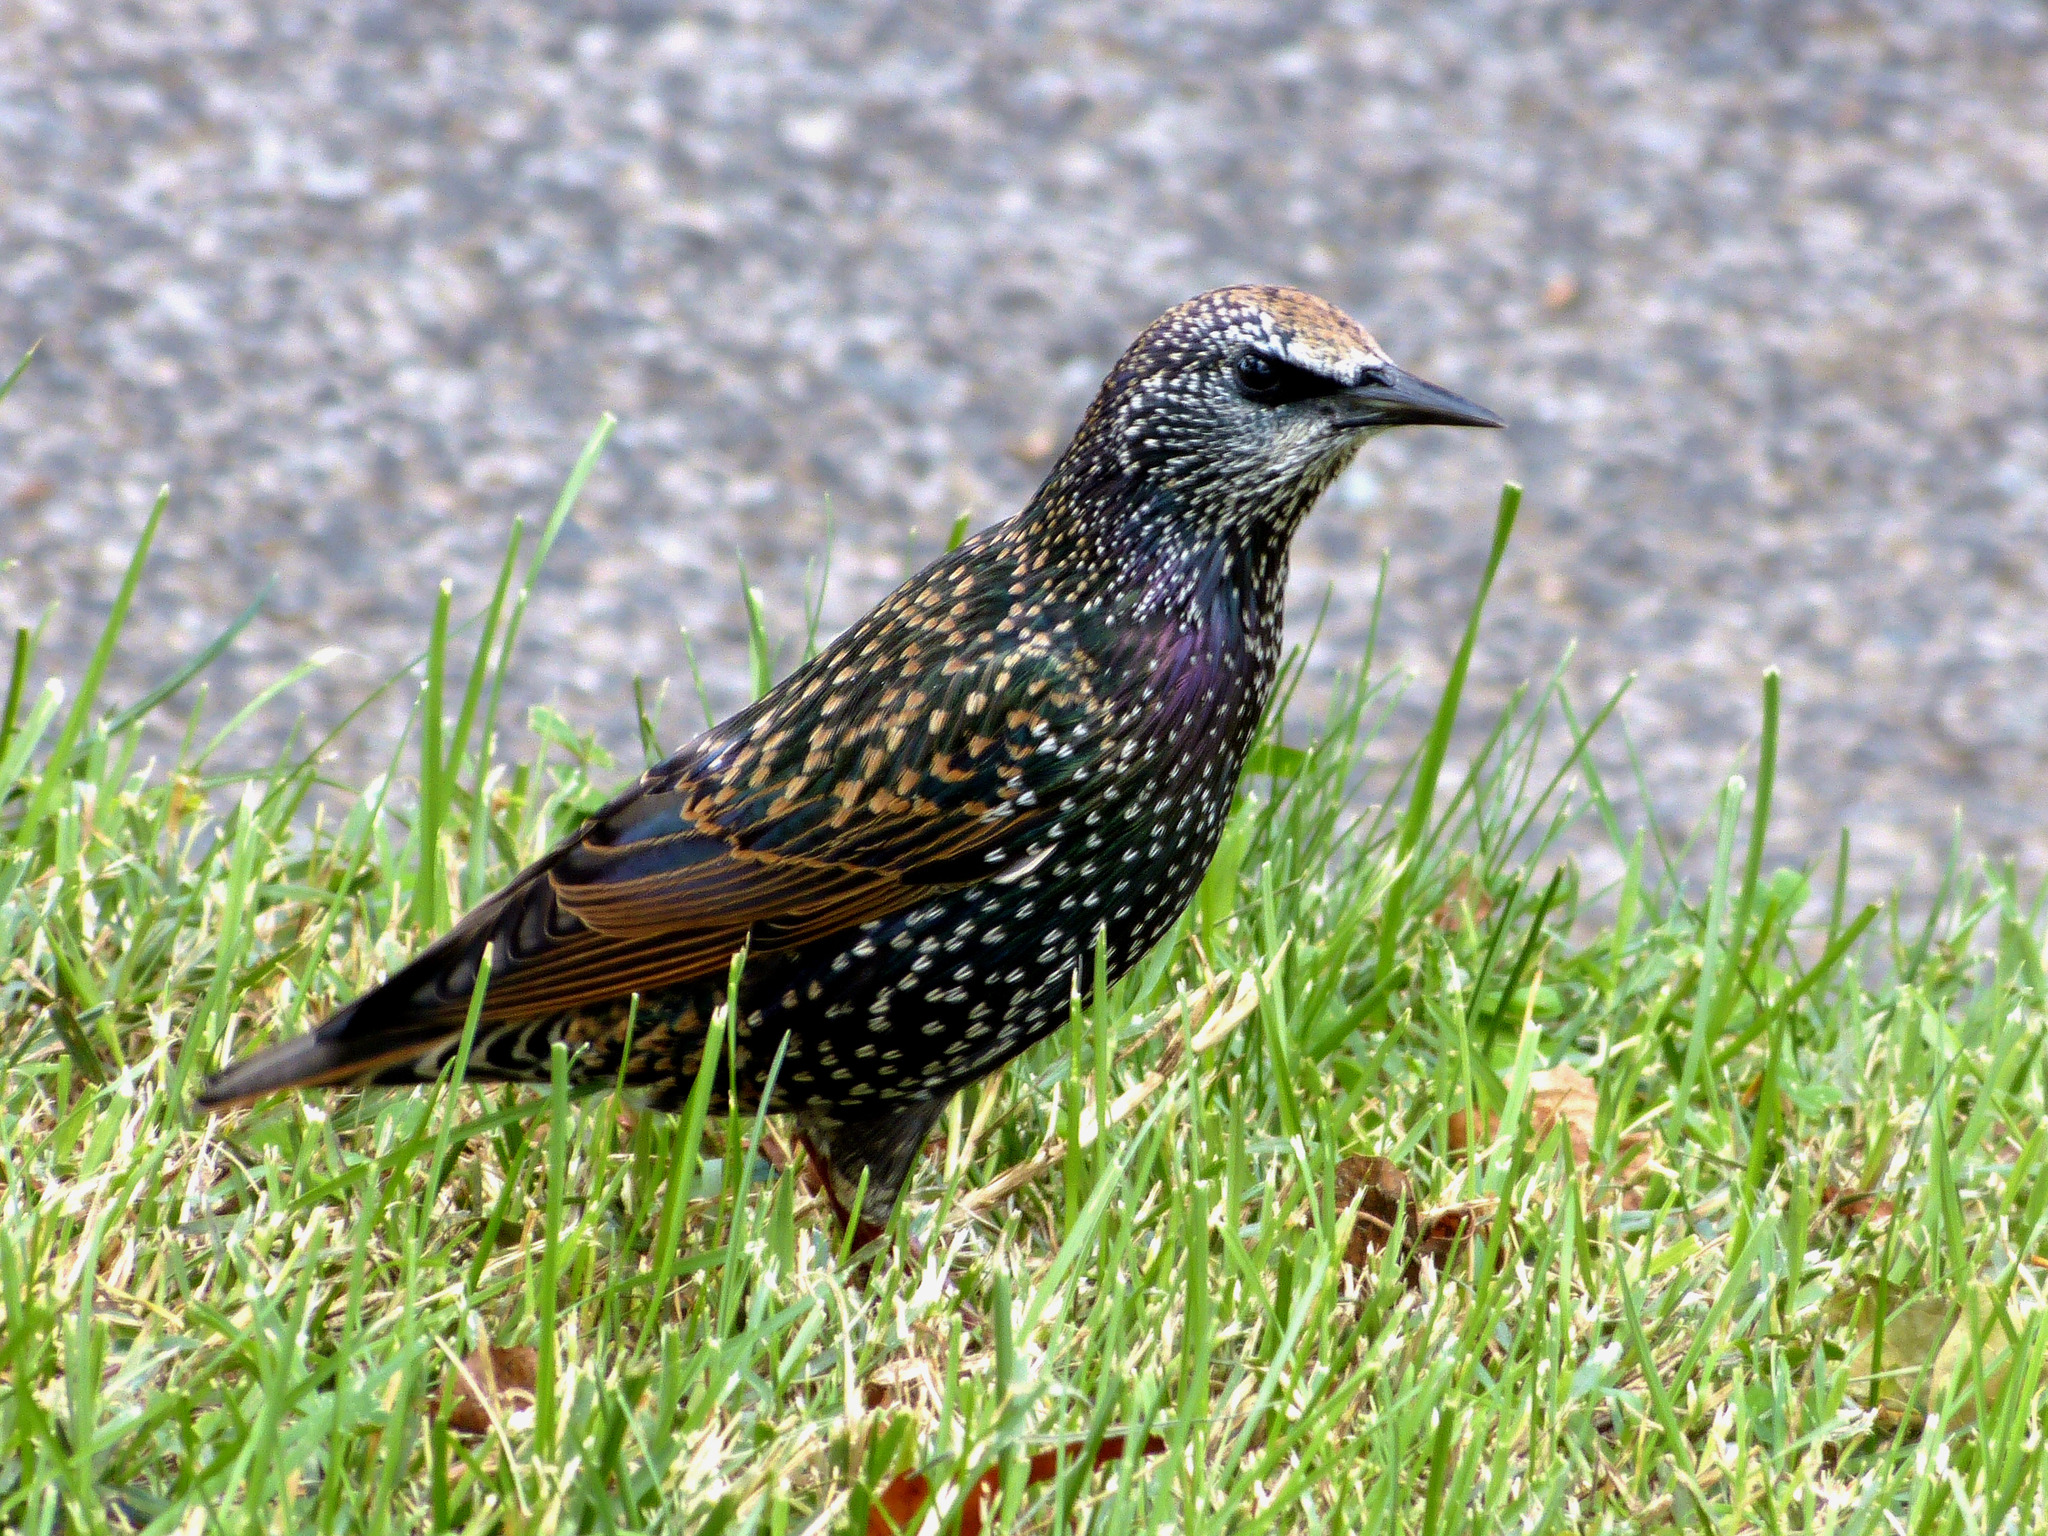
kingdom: Animalia
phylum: Chordata
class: Aves
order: Passeriformes
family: Sturnidae
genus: Sturnus
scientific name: Sturnus vulgaris
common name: Common starling
